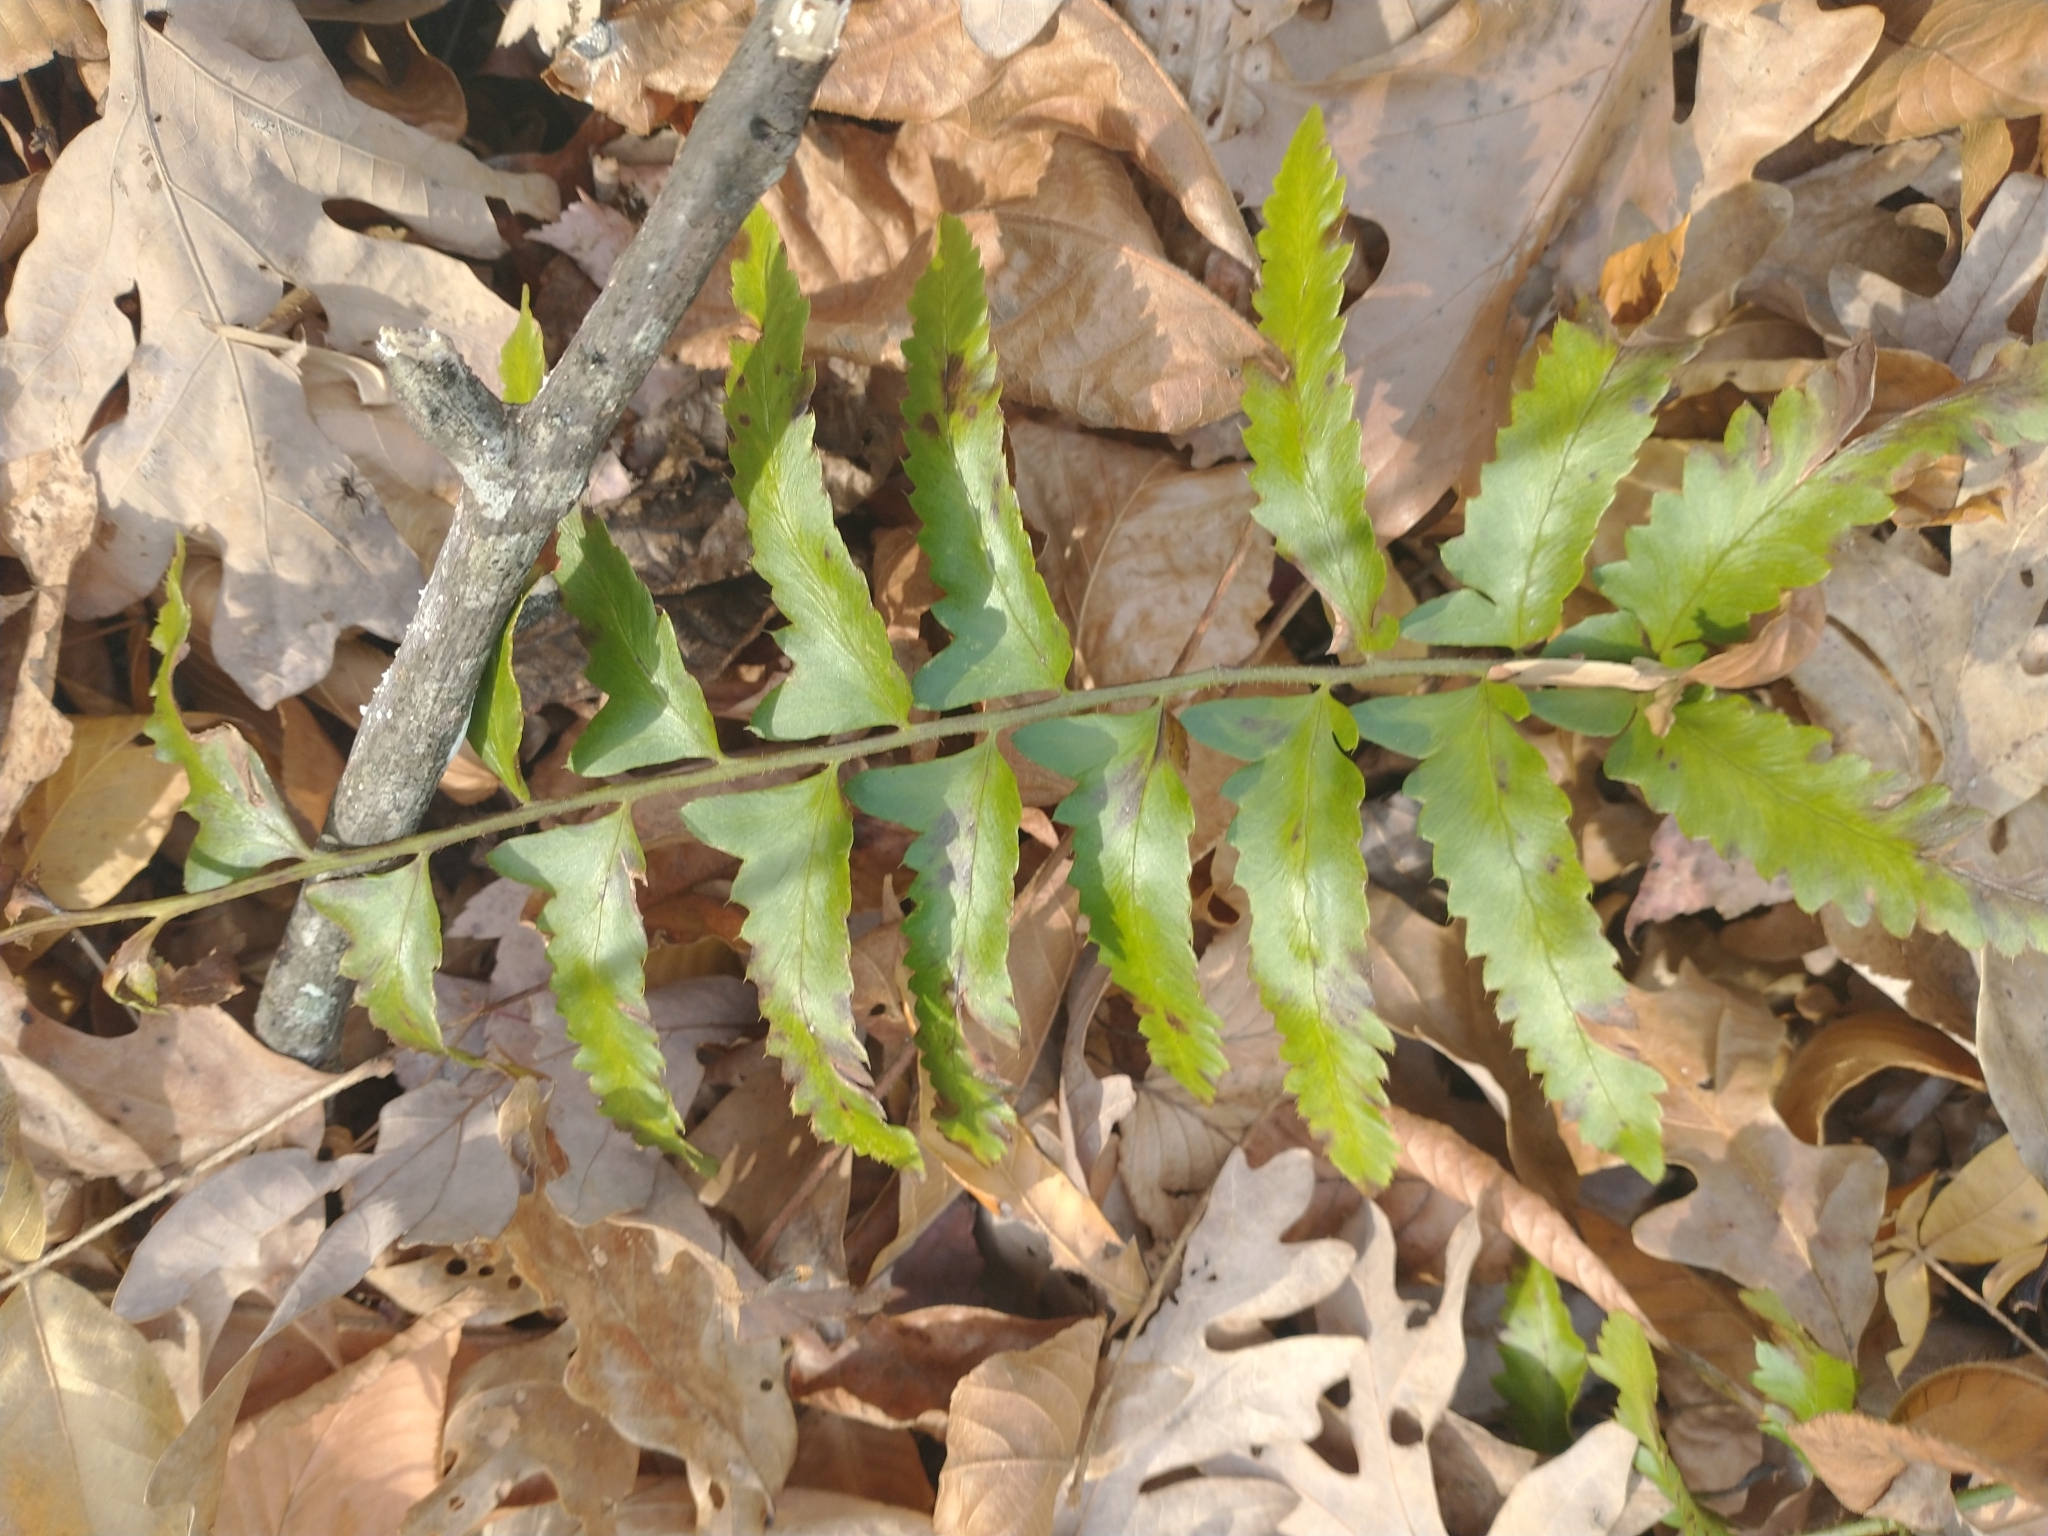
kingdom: Plantae
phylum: Tracheophyta
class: Polypodiopsida
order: Polypodiales
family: Dryopteridaceae
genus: Polystichum
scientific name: Polystichum acrostichoides
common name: Christmas fern
